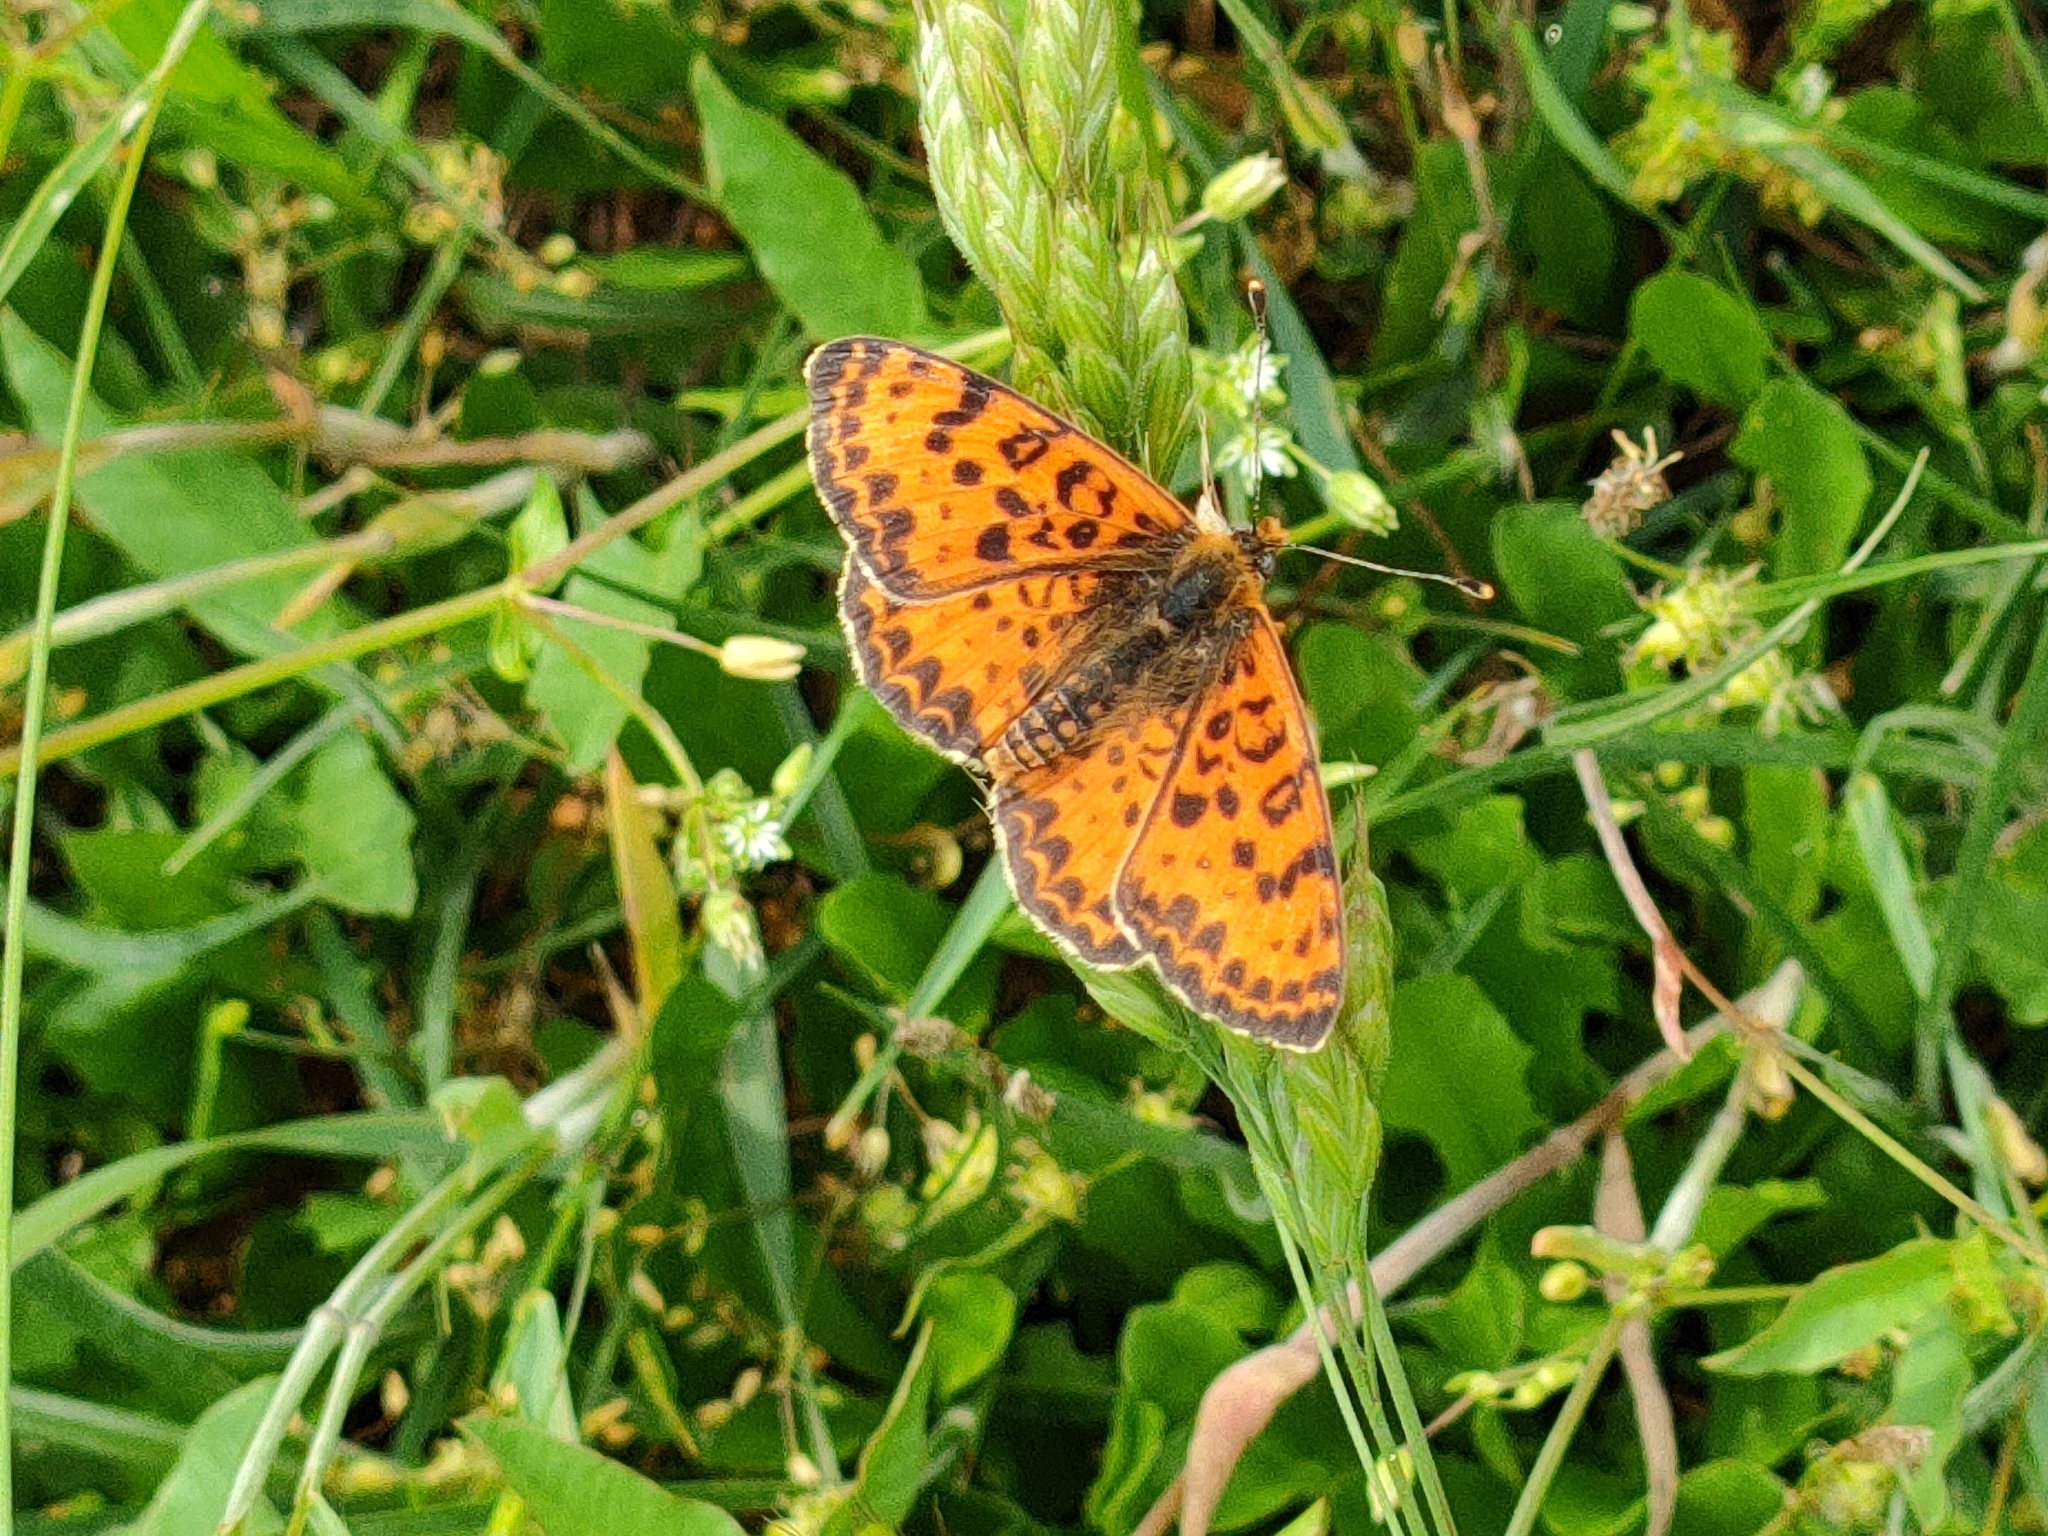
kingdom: Animalia
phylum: Arthropoda
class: Insecta
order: Lepidoptera
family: Nymphalidae
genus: Melitaea
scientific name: Melitaea didyma
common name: Spotted fritillary
